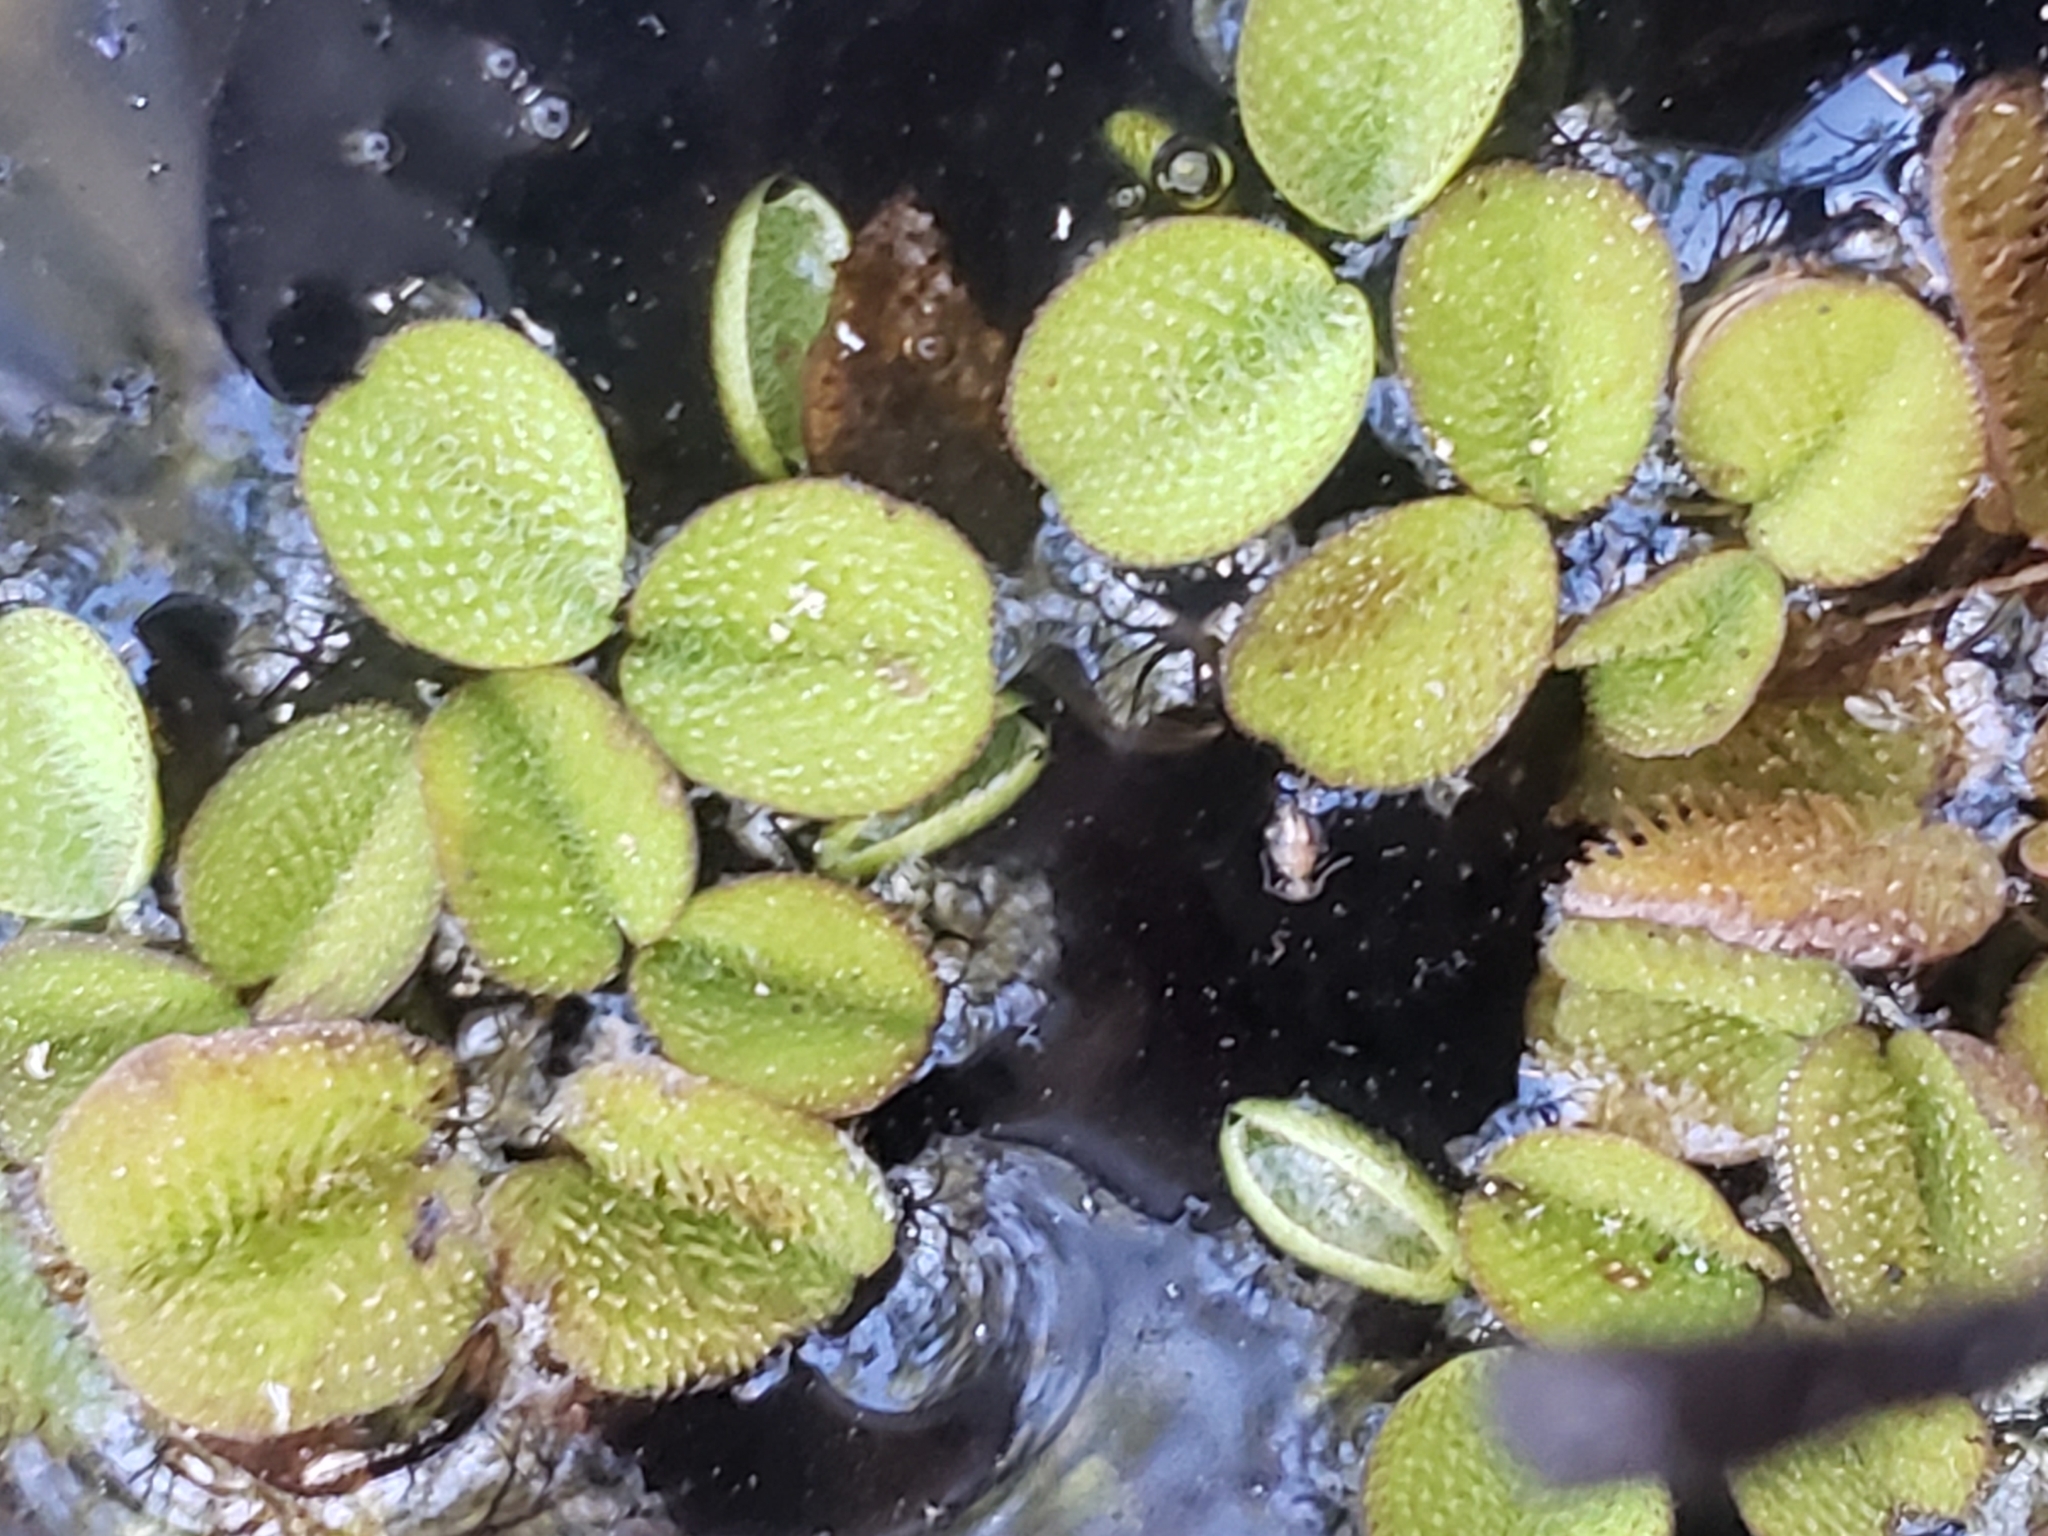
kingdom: Plantae
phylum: Tracheophyta
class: Polypodiopsida
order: Salviniales
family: Salviniaceae
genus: Salvinia
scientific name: Salvinia minima
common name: Water spangles
